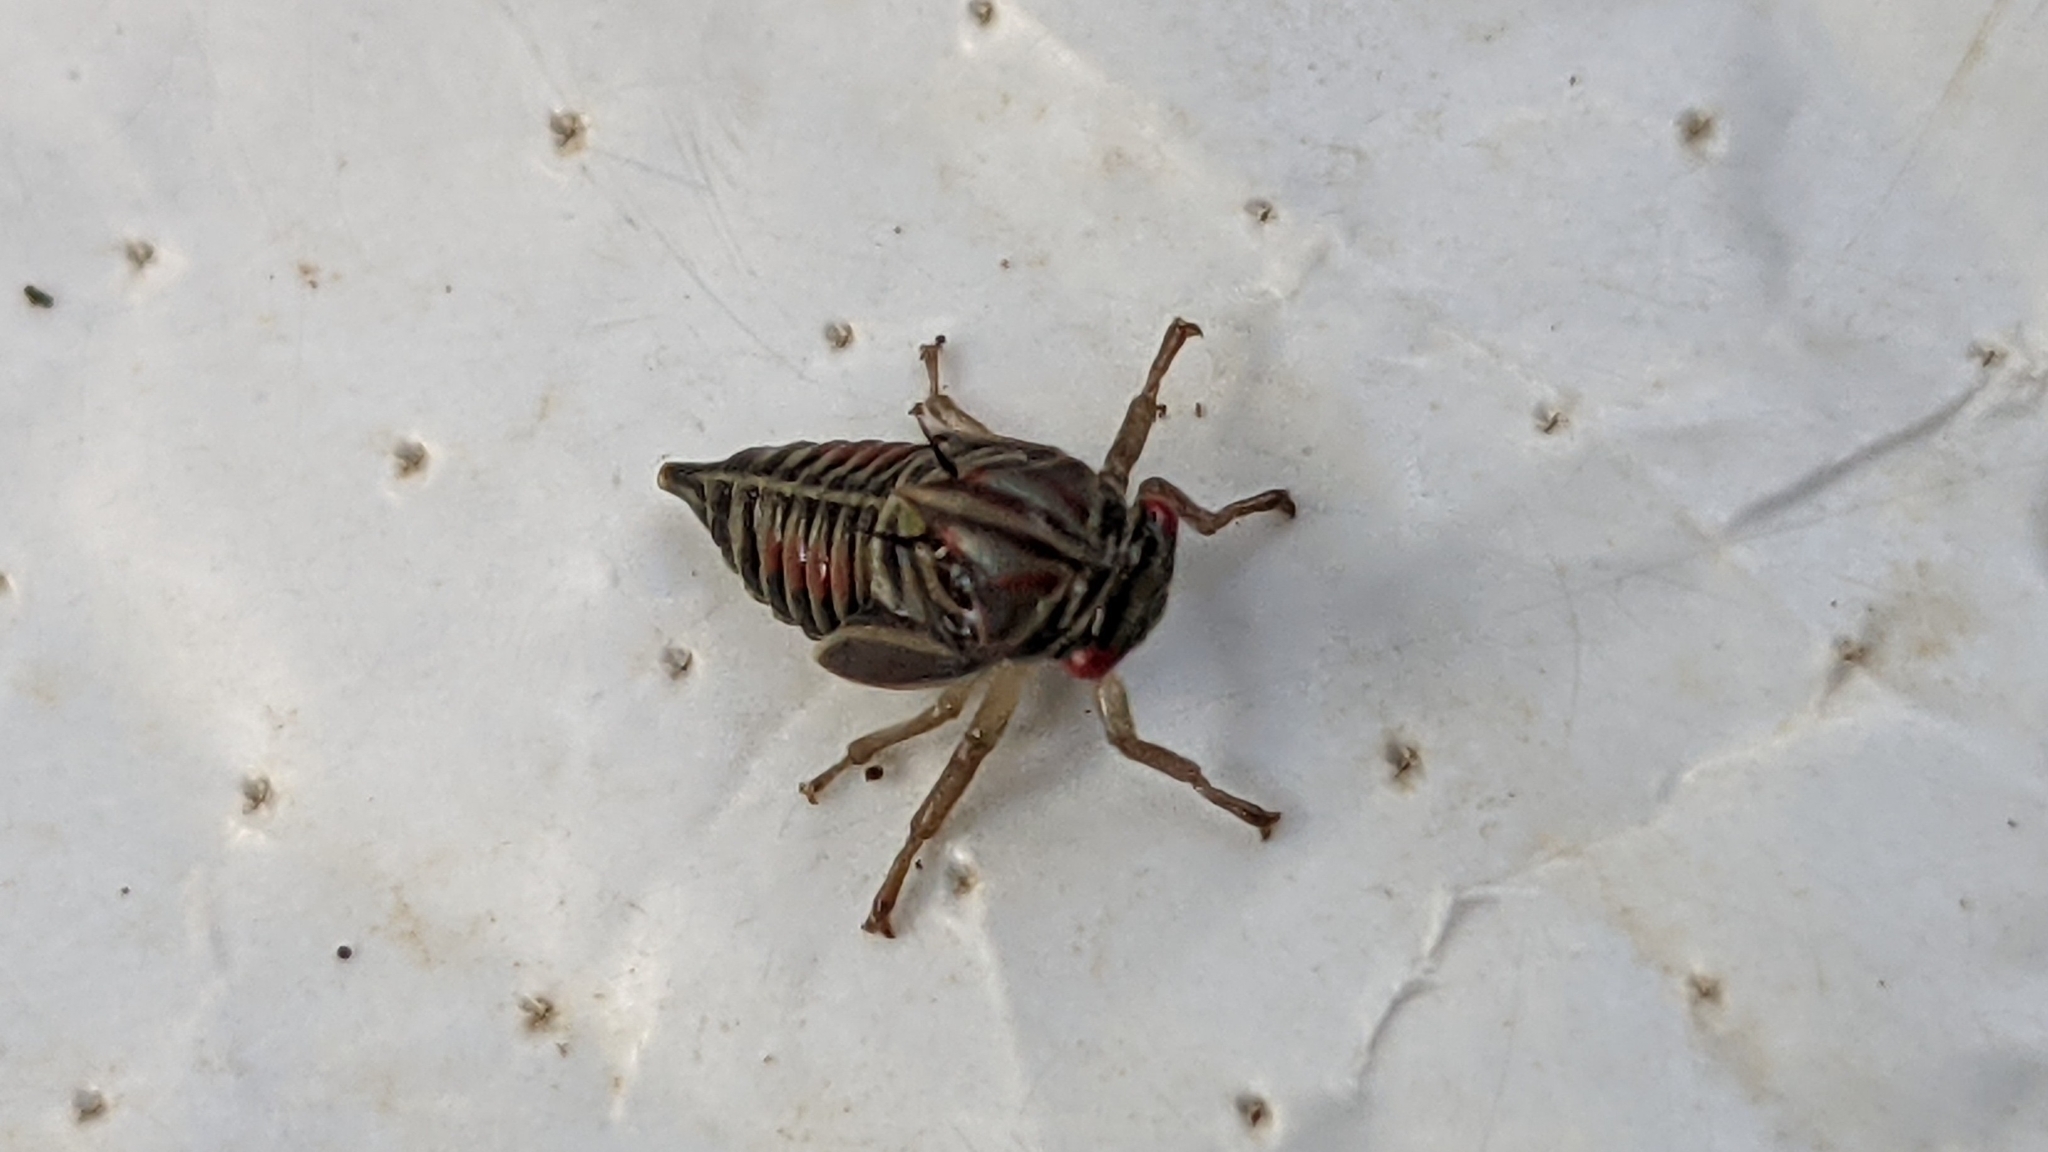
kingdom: Animalia
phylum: Arthropoda
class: Insecta
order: Hemiptera
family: Membracidae
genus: Platycotis
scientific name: Platycotis vittatus
